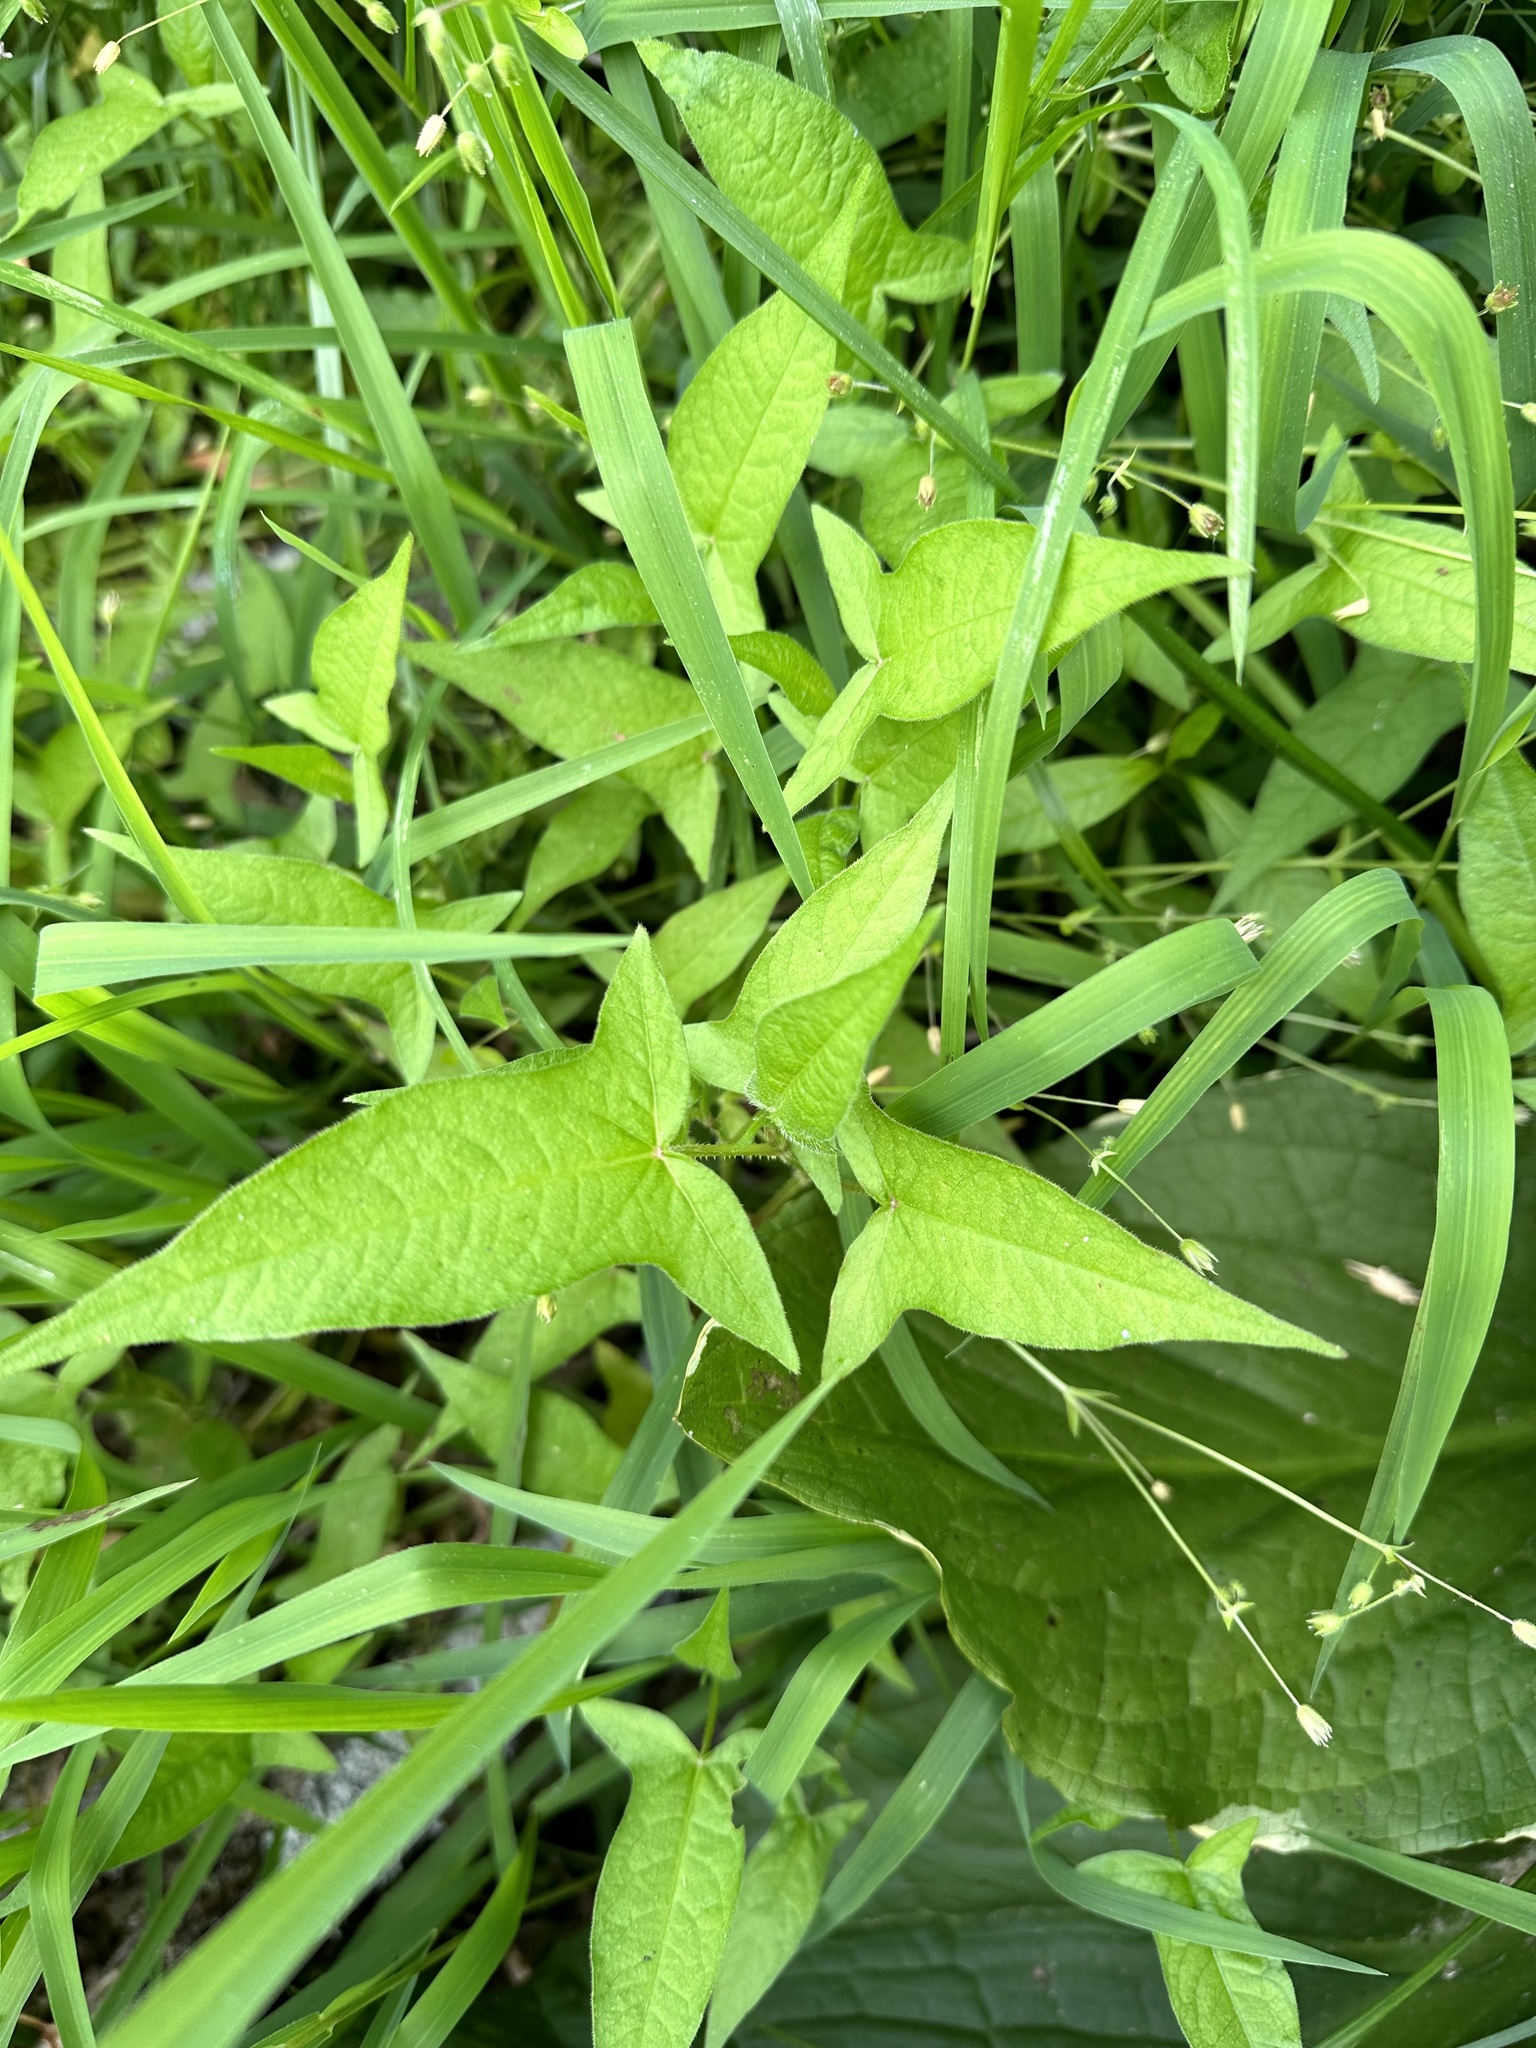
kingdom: Plantae
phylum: Tracheophyta
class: Magnoliopsida
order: Caryophyllales
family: Polygonaceae
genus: Persicaria
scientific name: Persicaria arifolia
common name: Halberd-leaved tear-thumb
